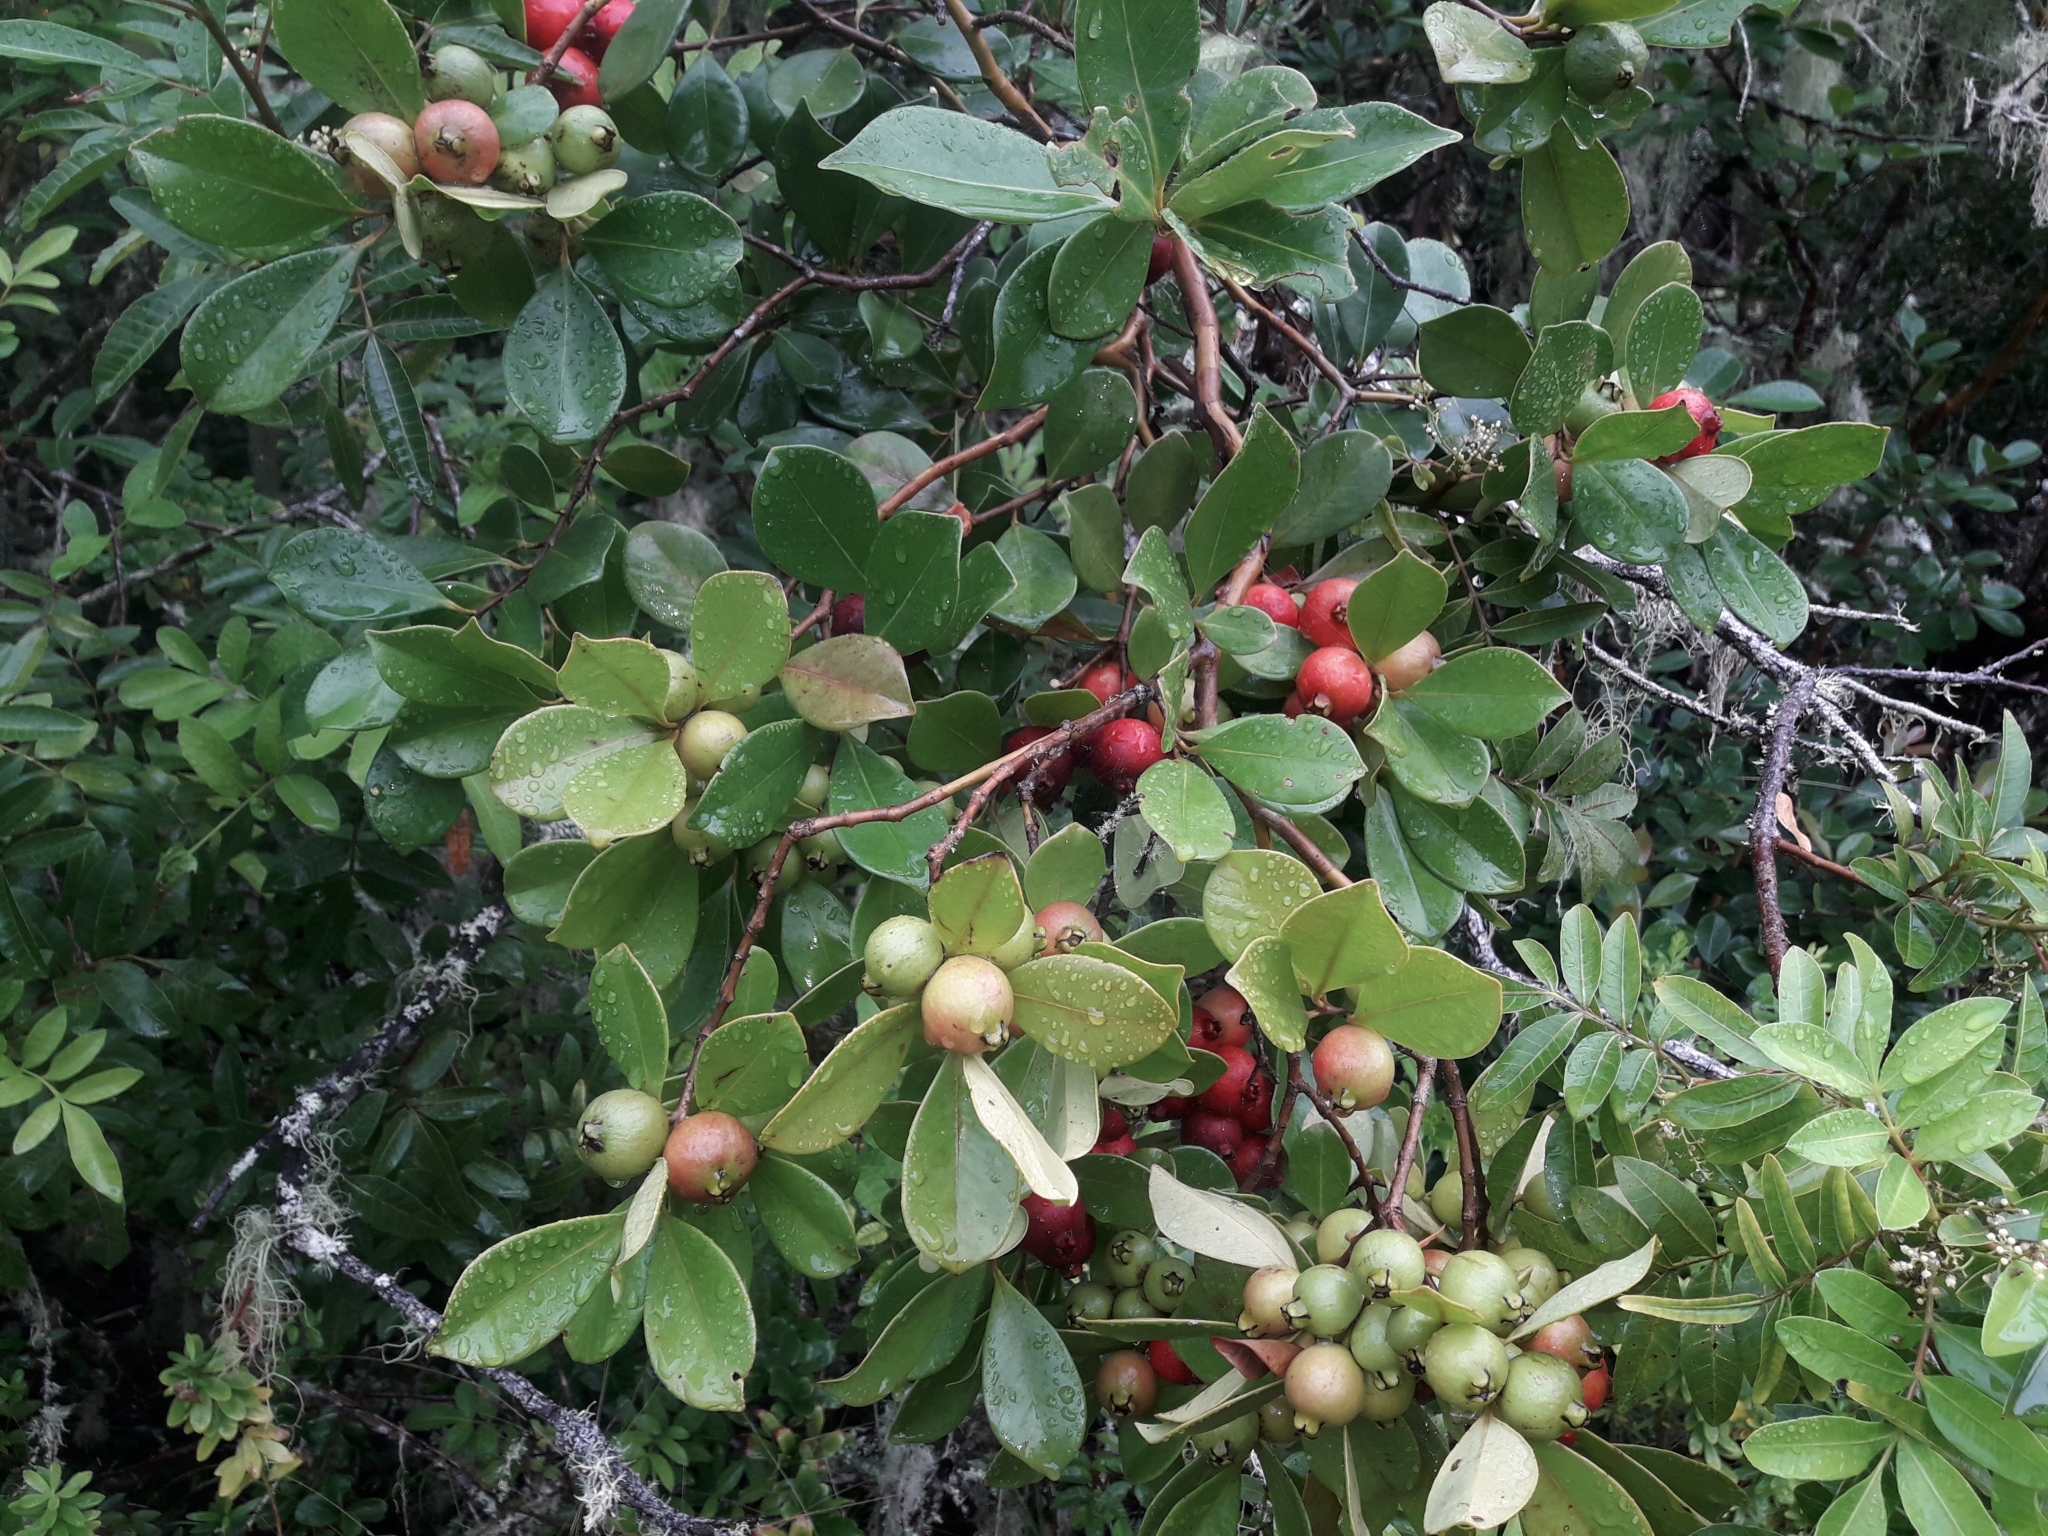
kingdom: Plantae
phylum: Tracheophyta
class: Magnoliopsida
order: Myrtales
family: Myrtaceae
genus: Psidium
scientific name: Psidium cattleianum
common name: Strawberry guava
